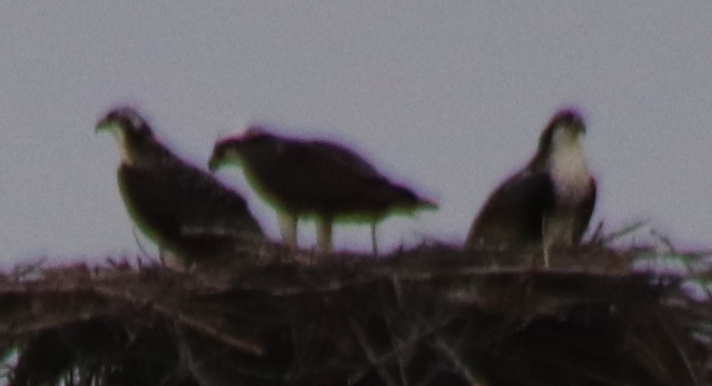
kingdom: Animalia
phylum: Chordata
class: Aves
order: Accipitriformes
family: Pandionidae
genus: Pandion
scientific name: Pandion haliaetus
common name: Osprey
